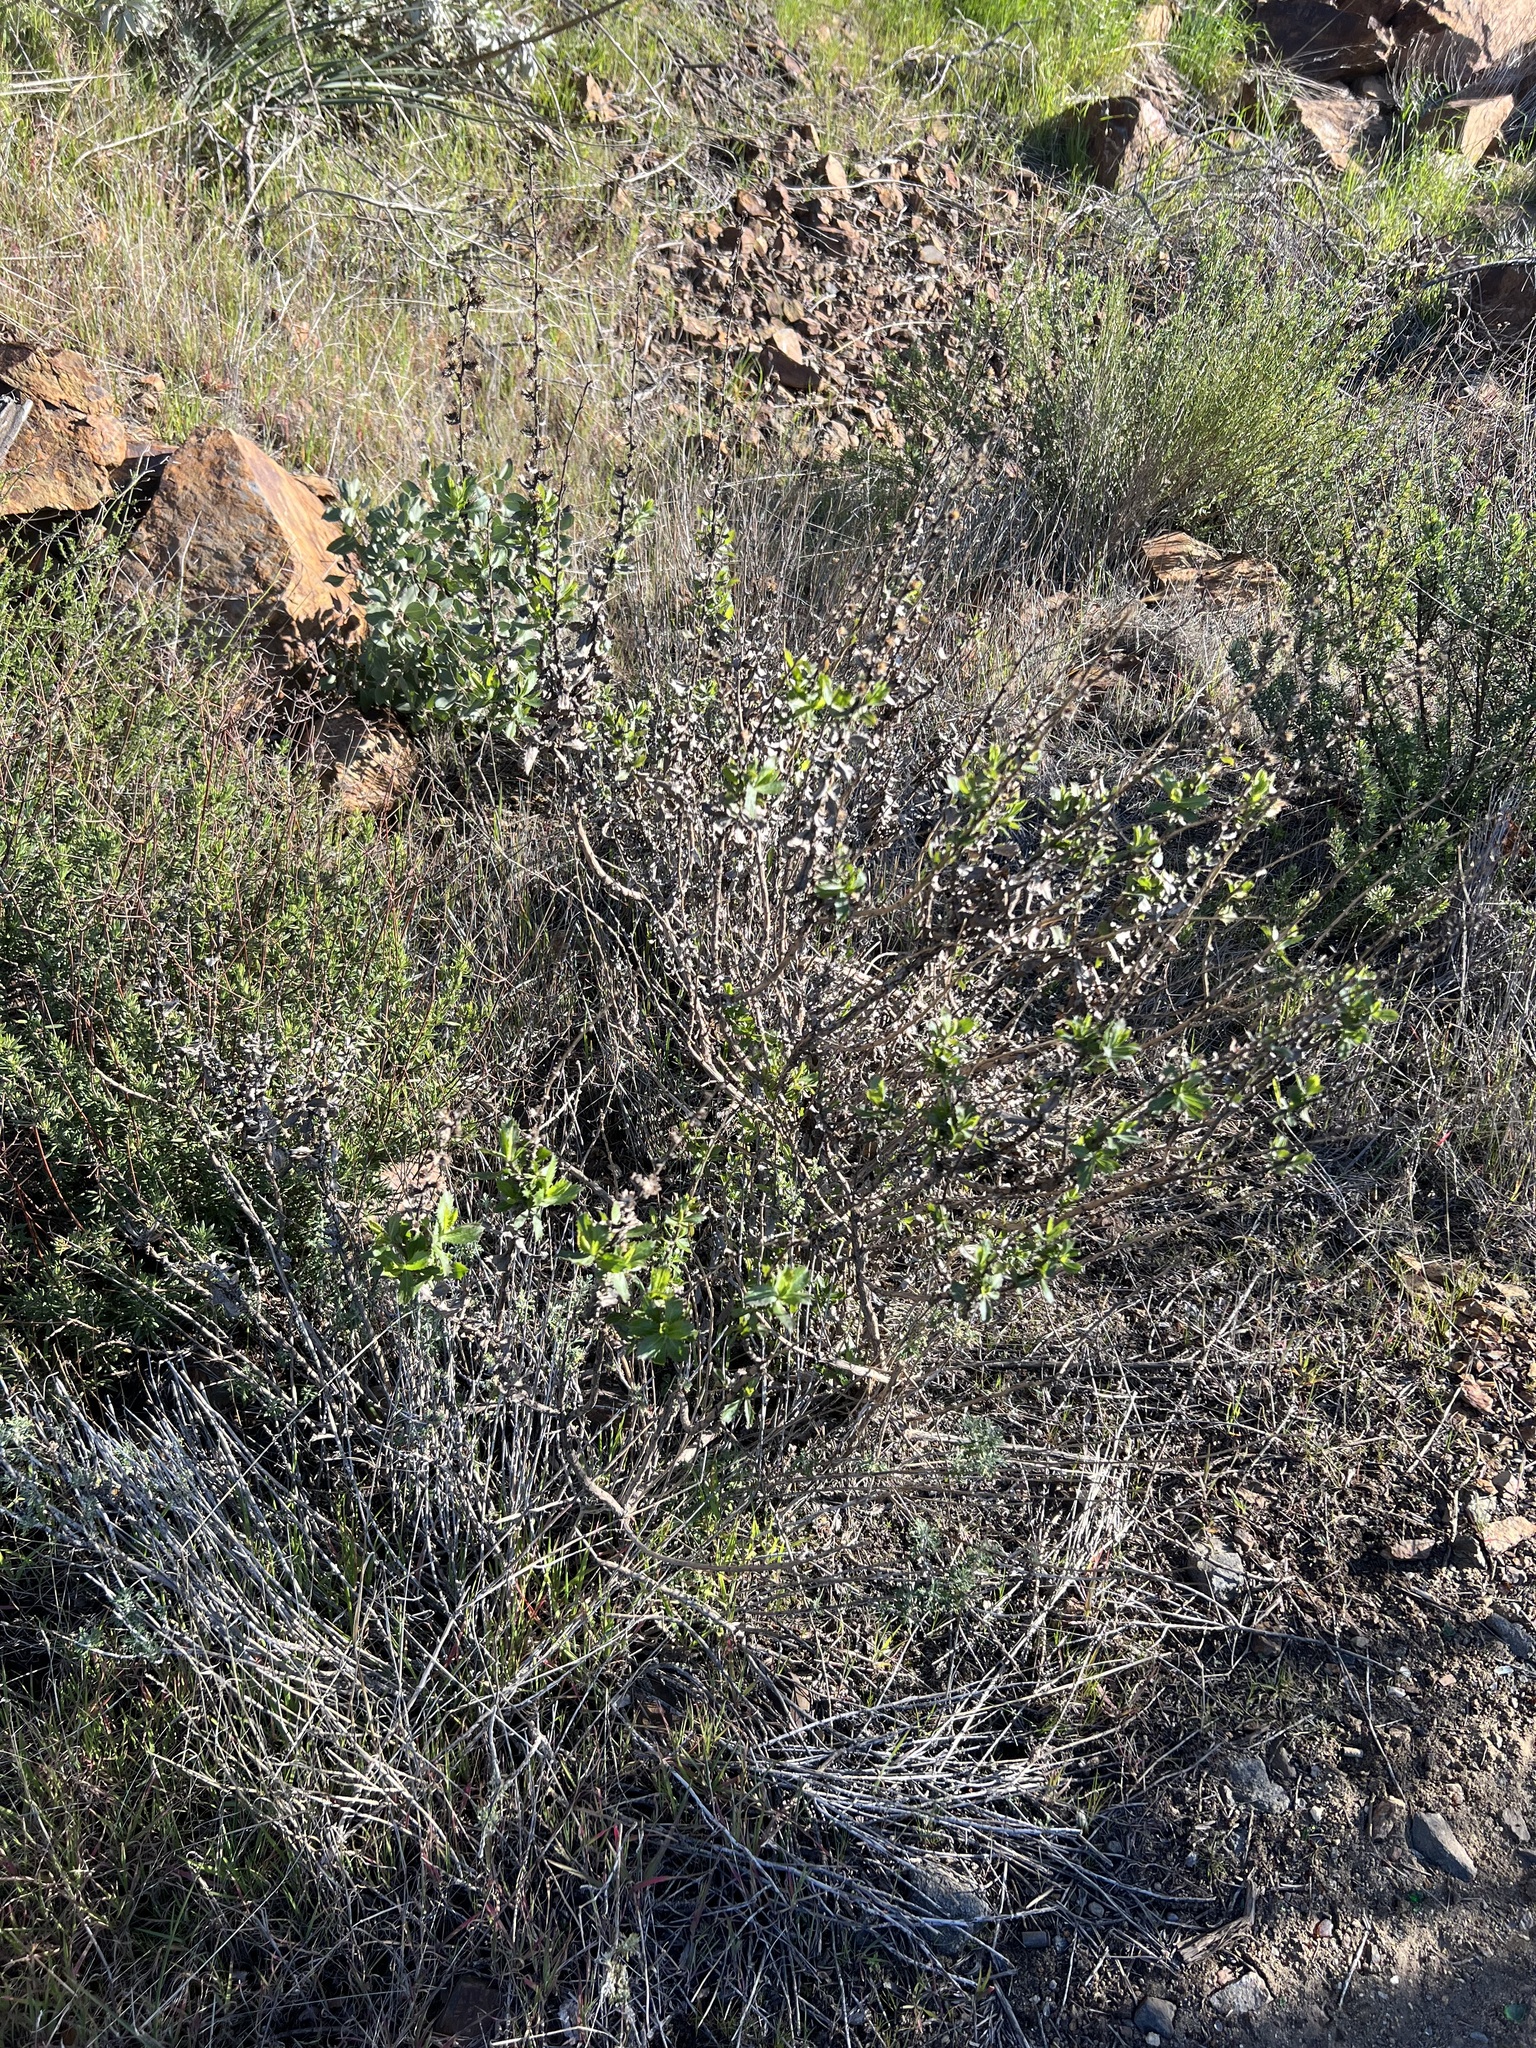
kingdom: Plantae
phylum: Tracheophyta
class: Magnoliopsida
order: Asterales
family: Asteraceae
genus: Hazardia
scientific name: Hazardia squarrosa
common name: Saw-tooth goldenbush
